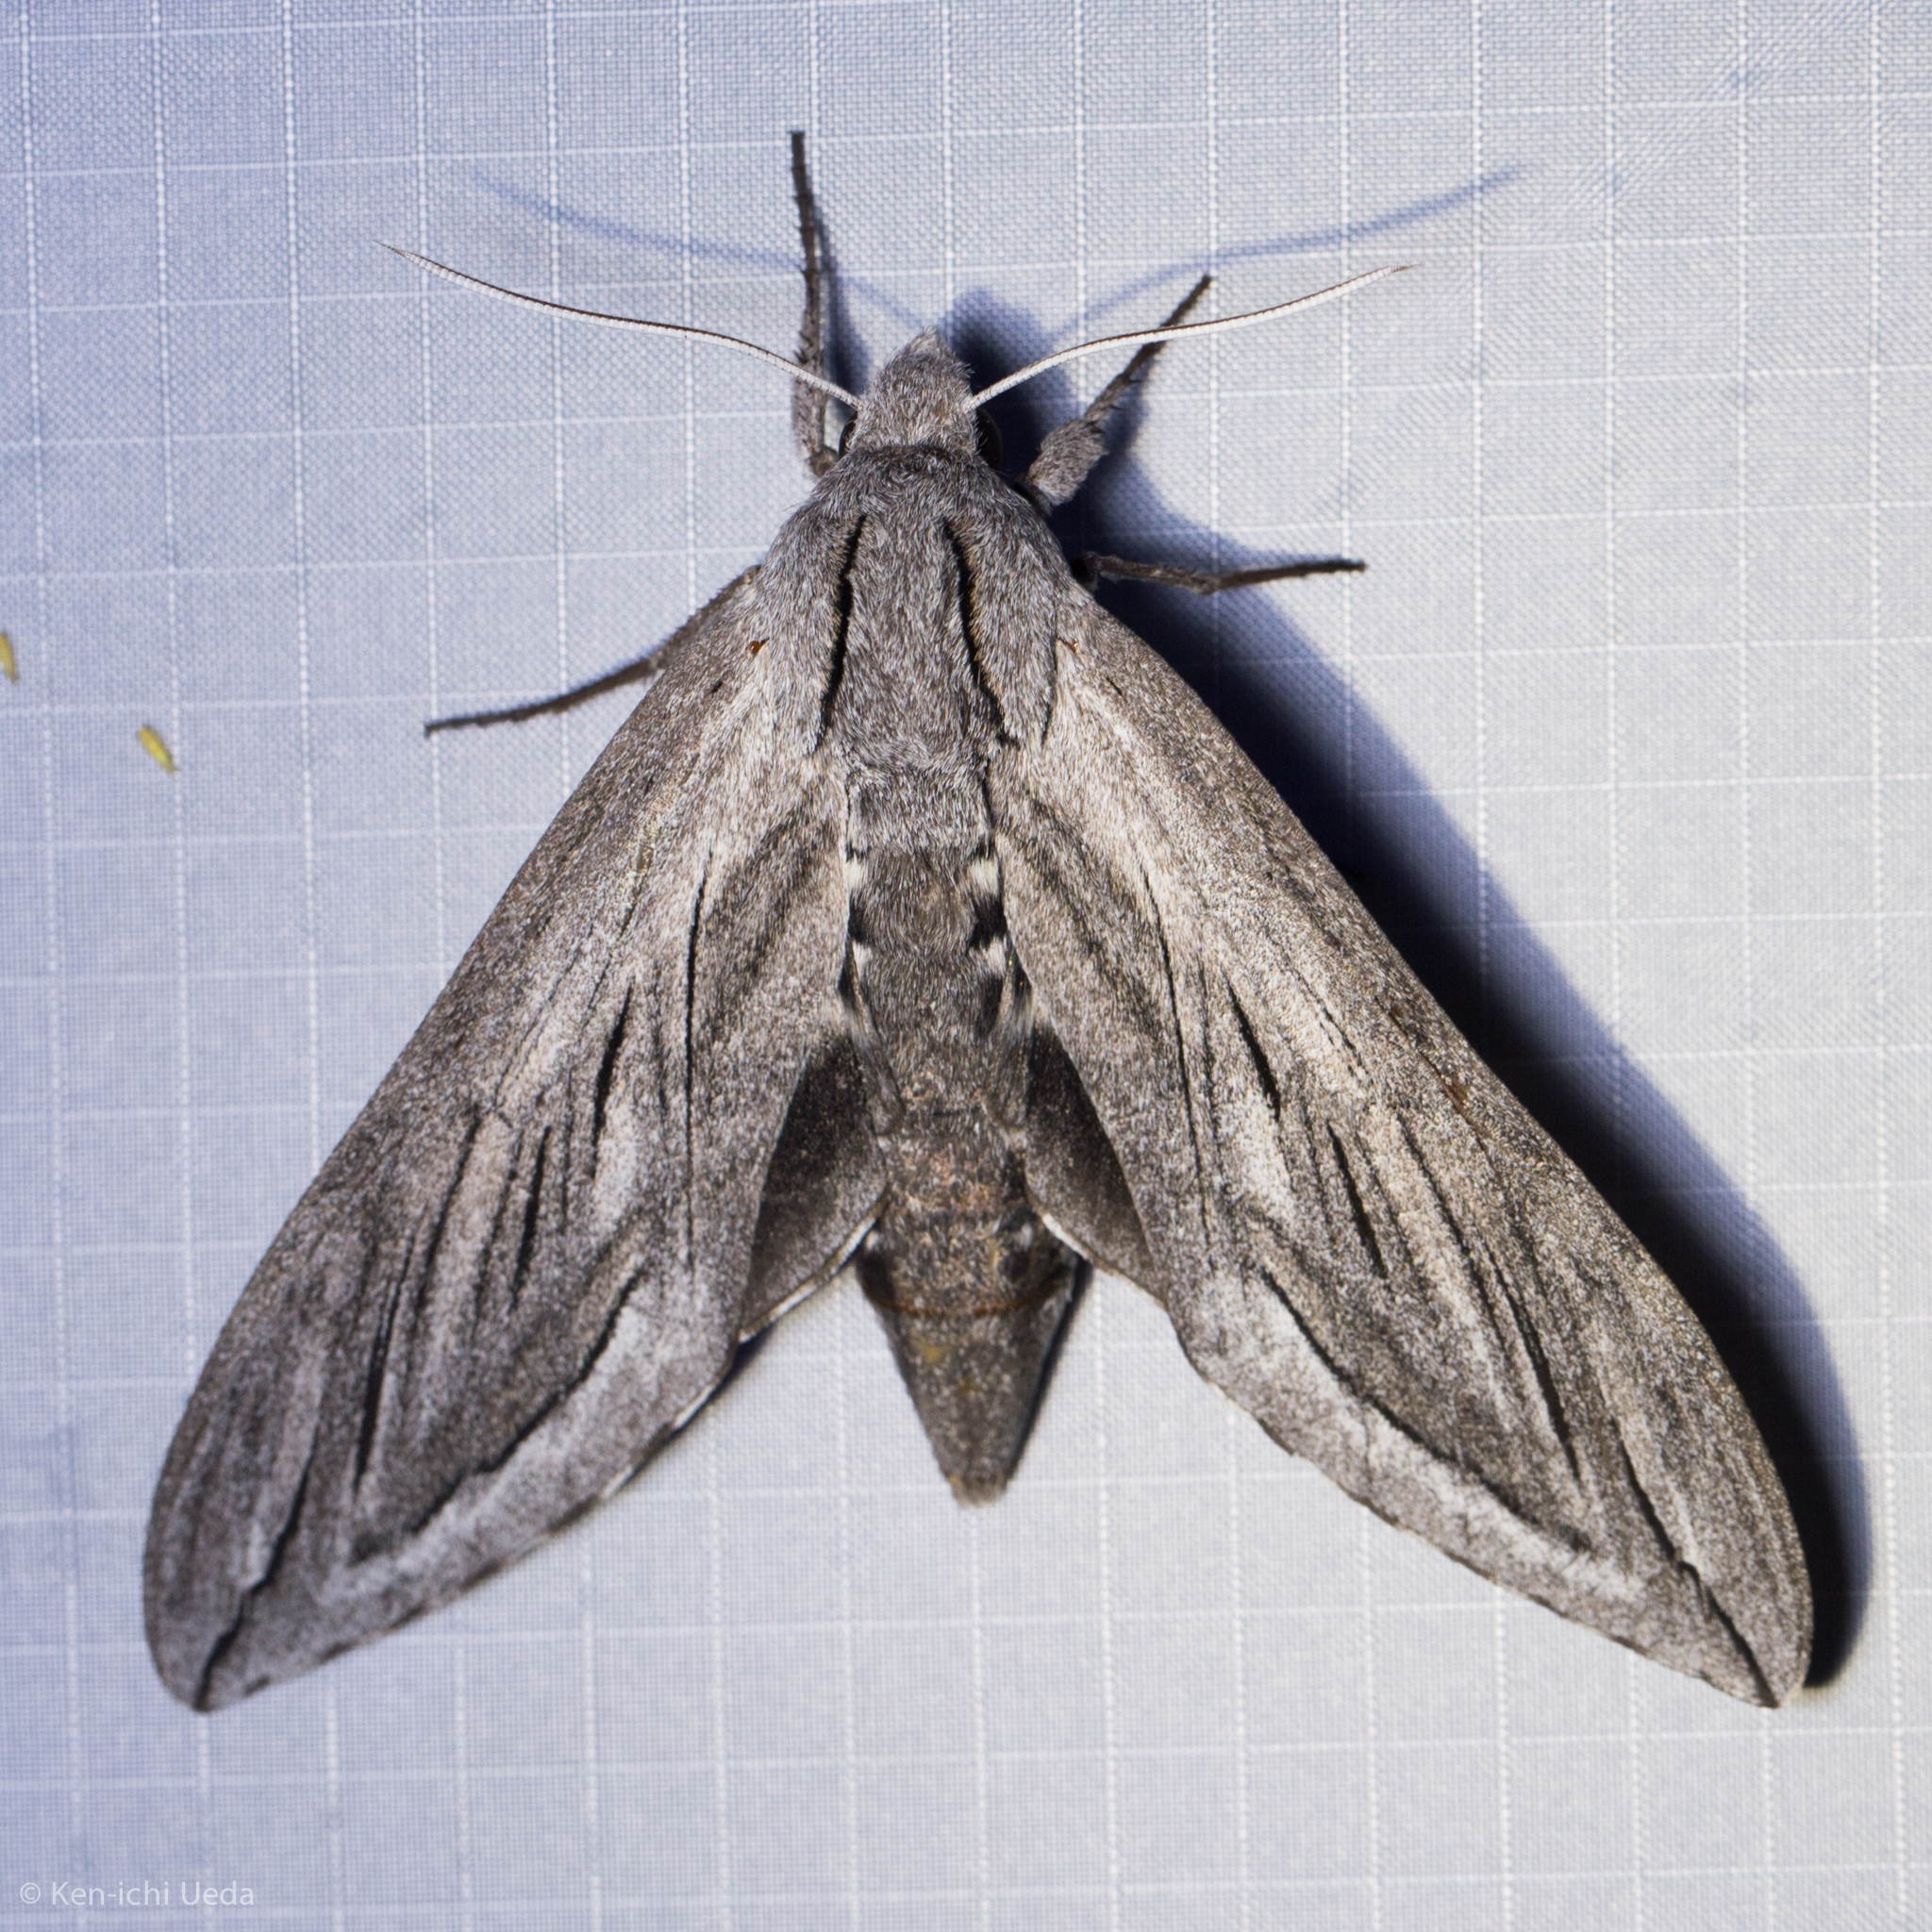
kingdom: Animalia
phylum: Arthropoda
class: Insecta
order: Lepidoptera
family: Sphingidae
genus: Sphinx
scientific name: Sphinx chersis
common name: Great ash sphinx
